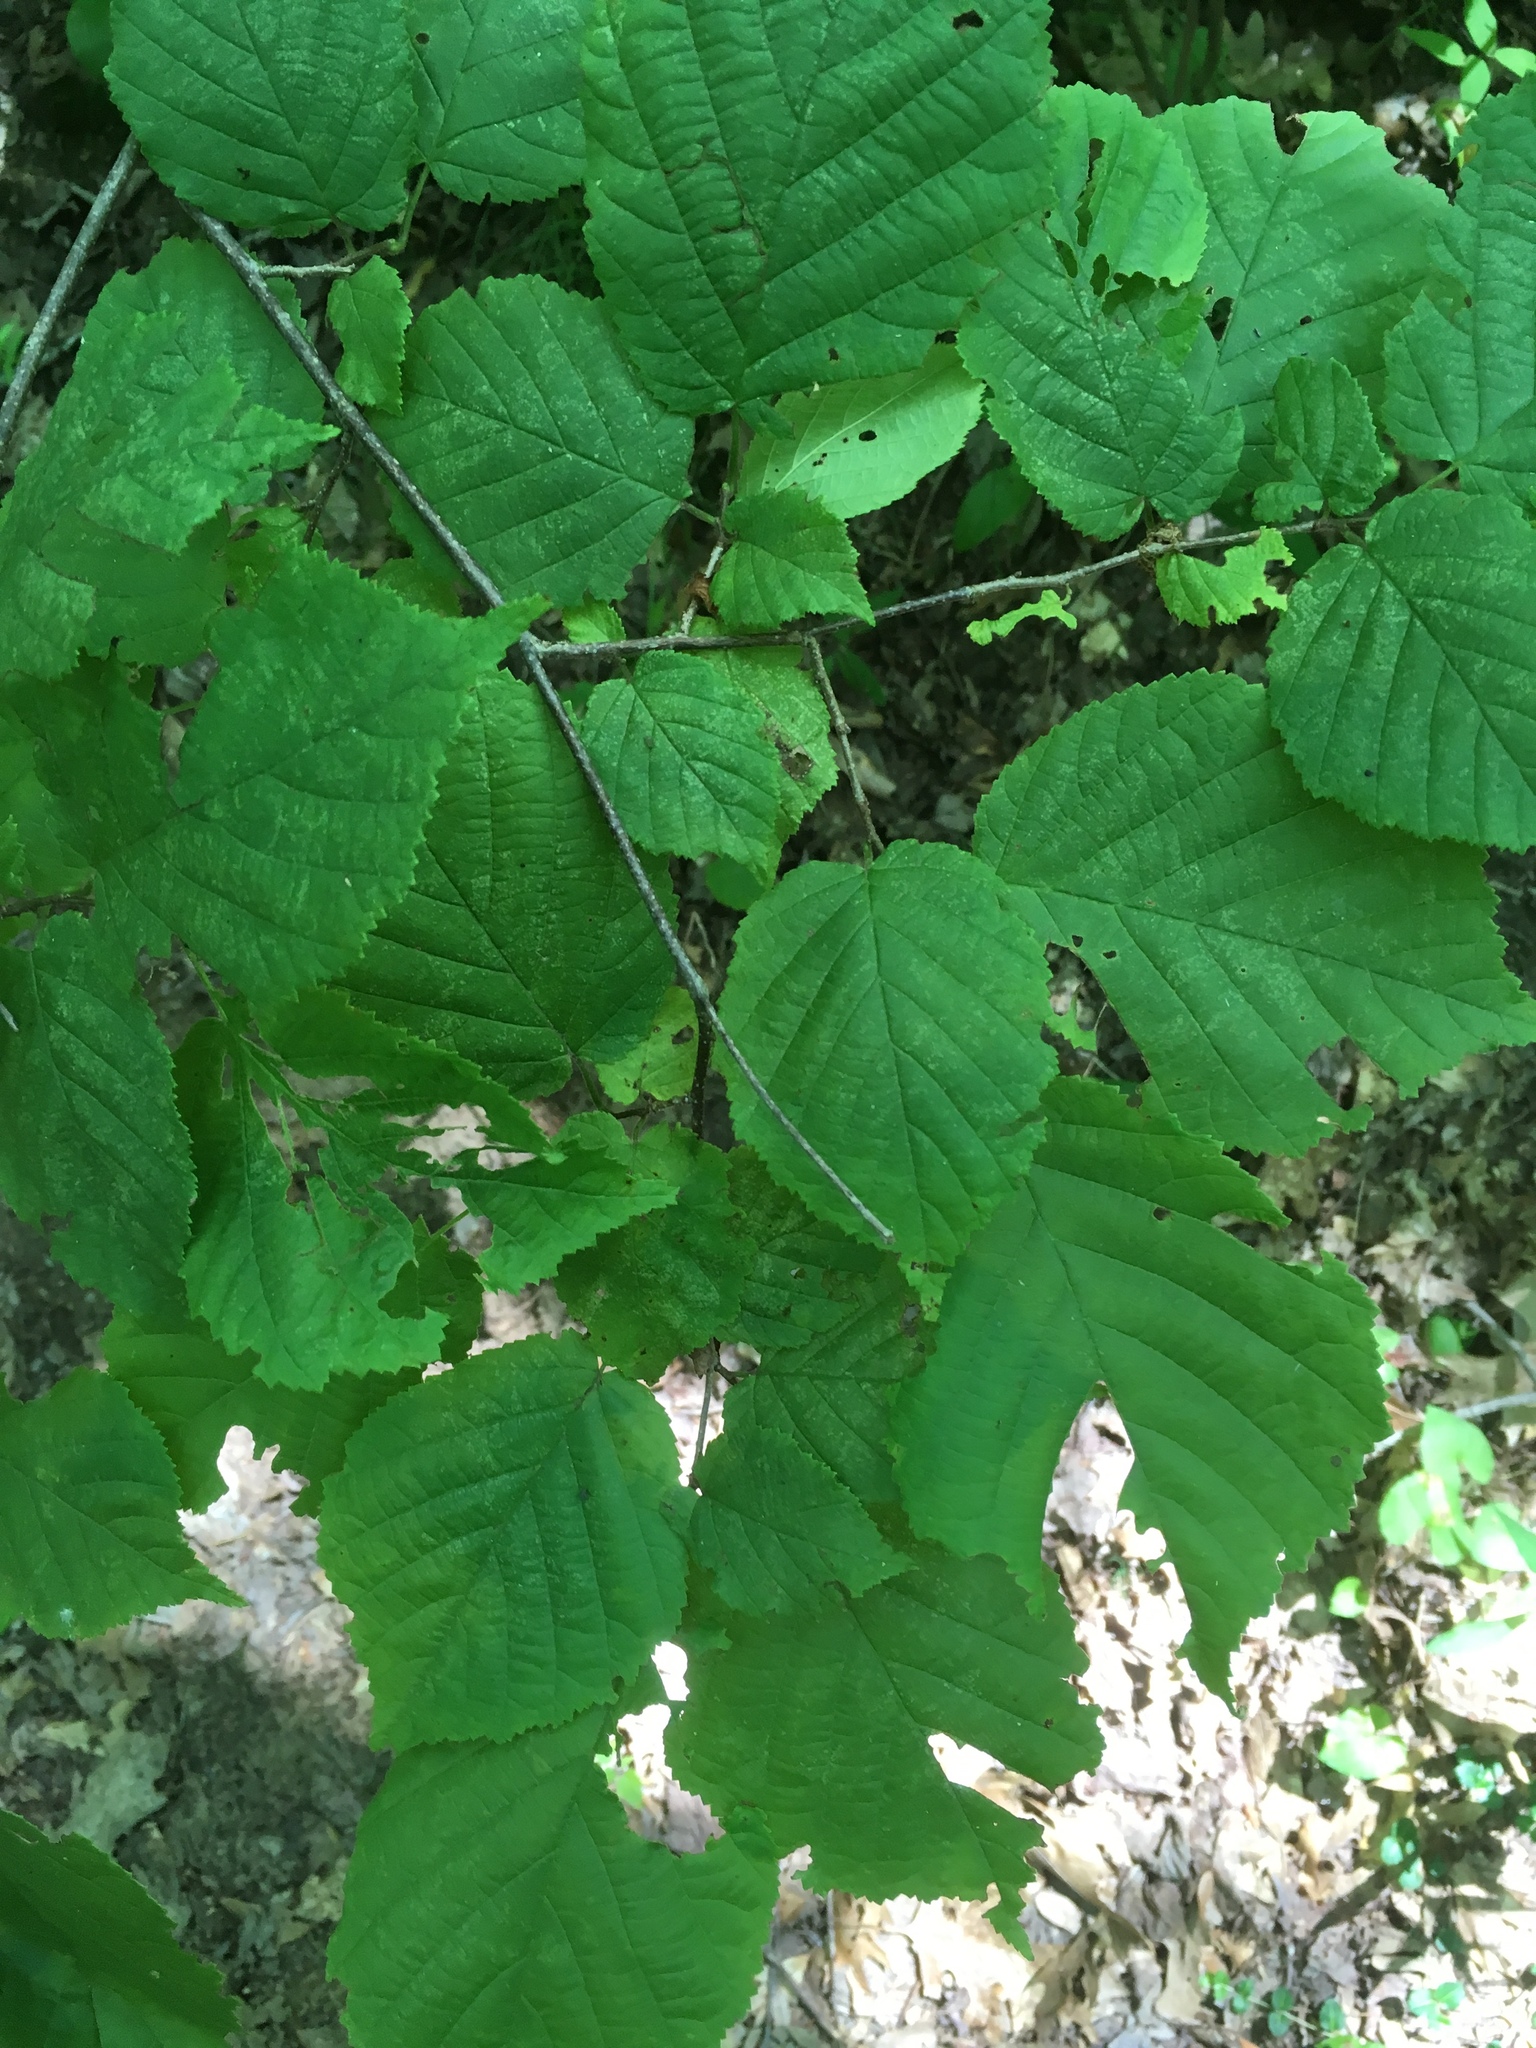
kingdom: Plantae
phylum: Tracheophyta
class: Magnoliopsida
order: Fagales
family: Betulaceae
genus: Corylus
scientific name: Corylus cornuta
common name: Beaked hazel
